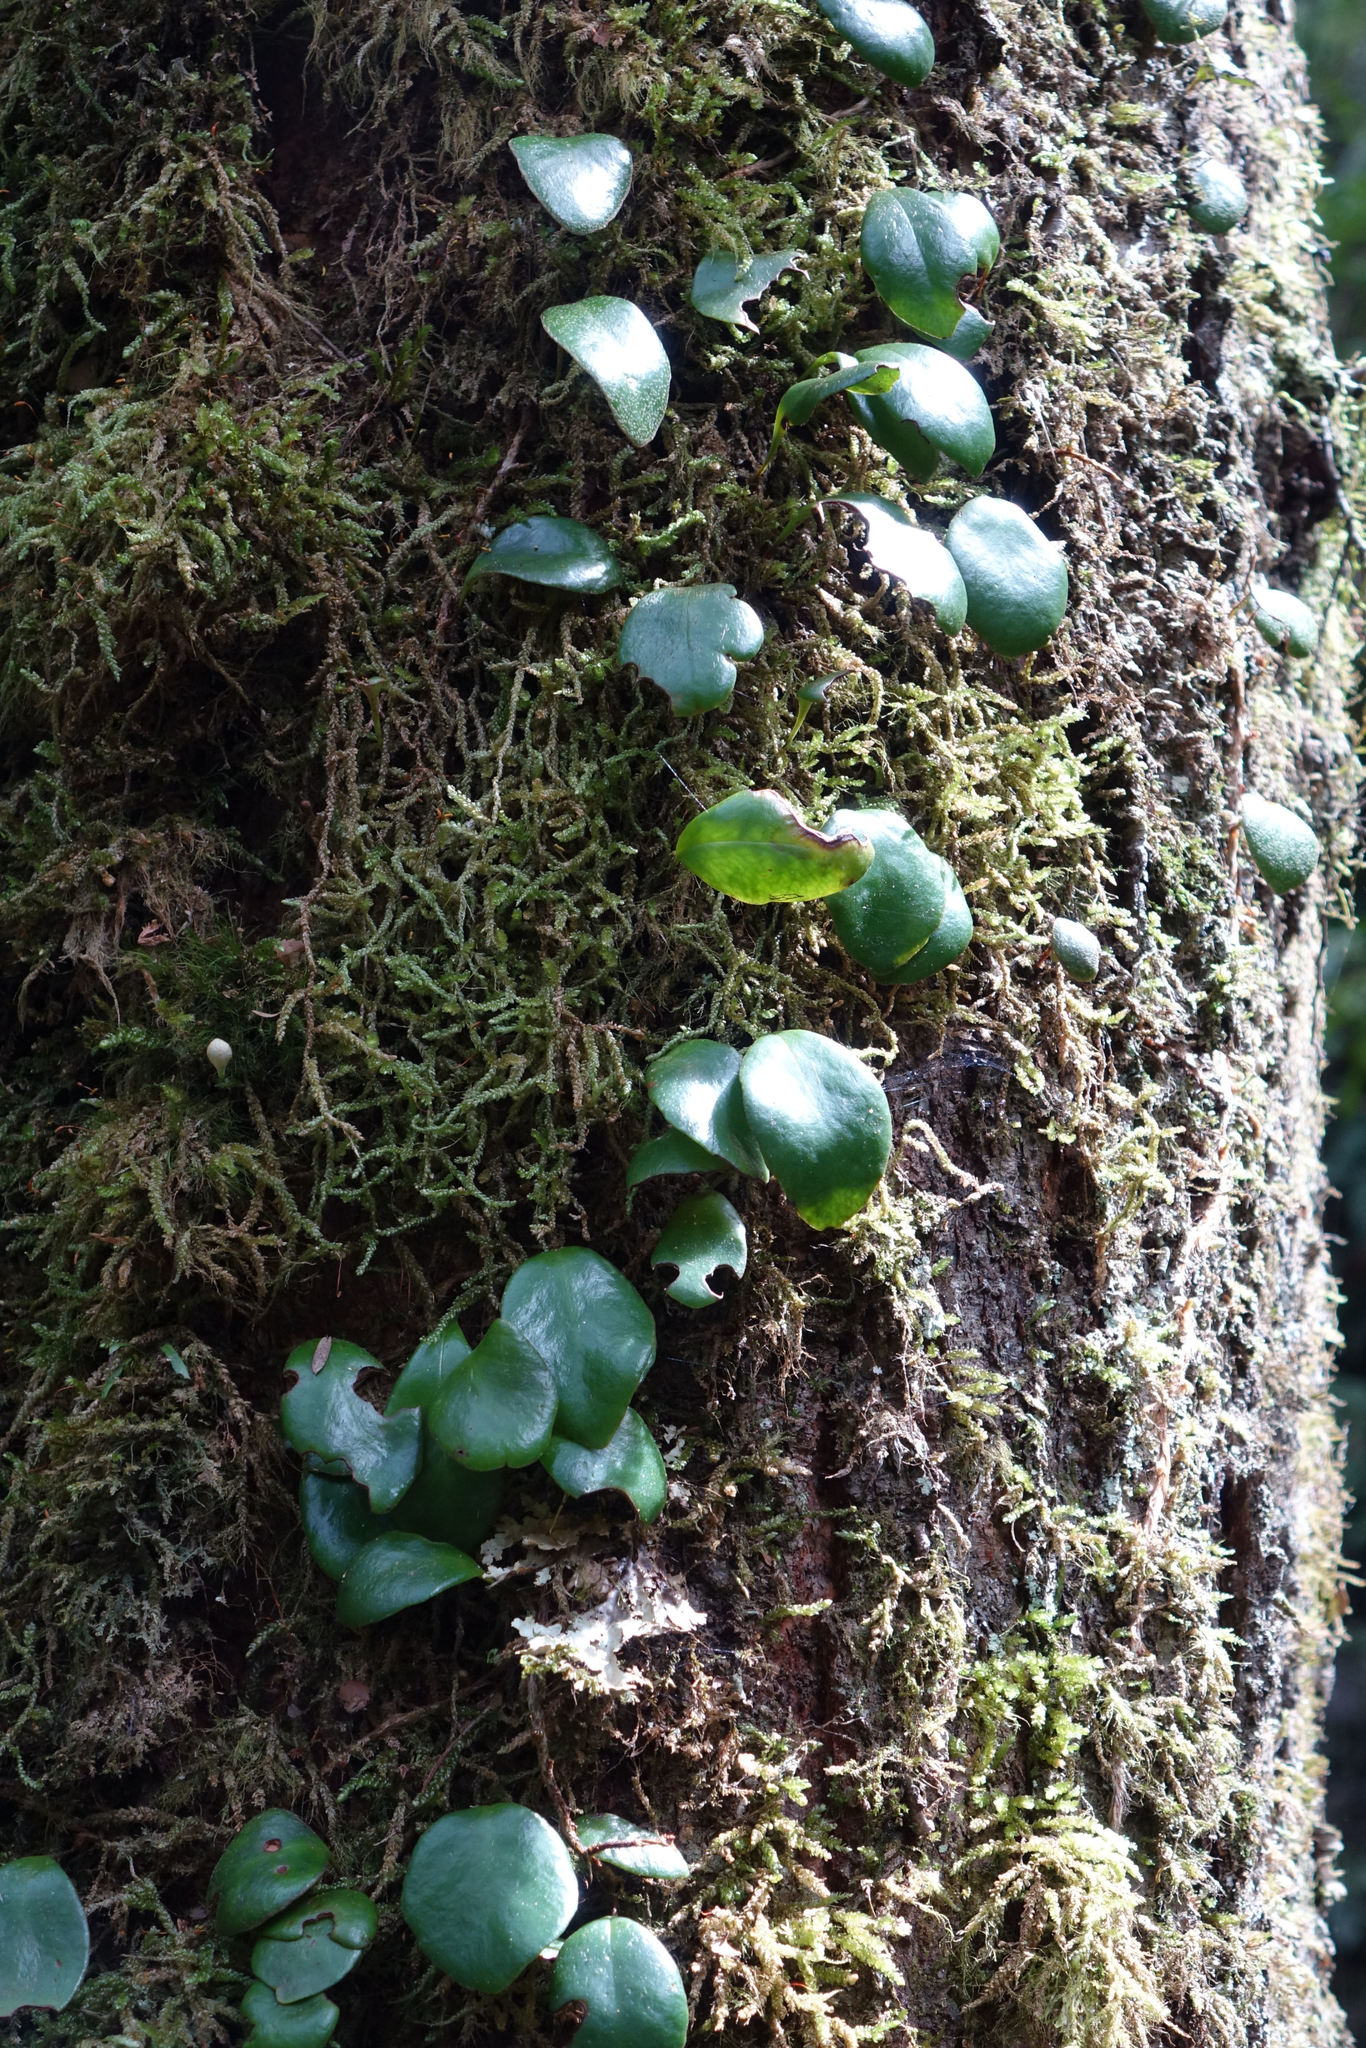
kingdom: Plantae
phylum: Tracheophyta
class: Polypodiopsida
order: Polypodiales
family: Polypodiaceae
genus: Pyrrosia
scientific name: Pyrrosia eleagnifolia
